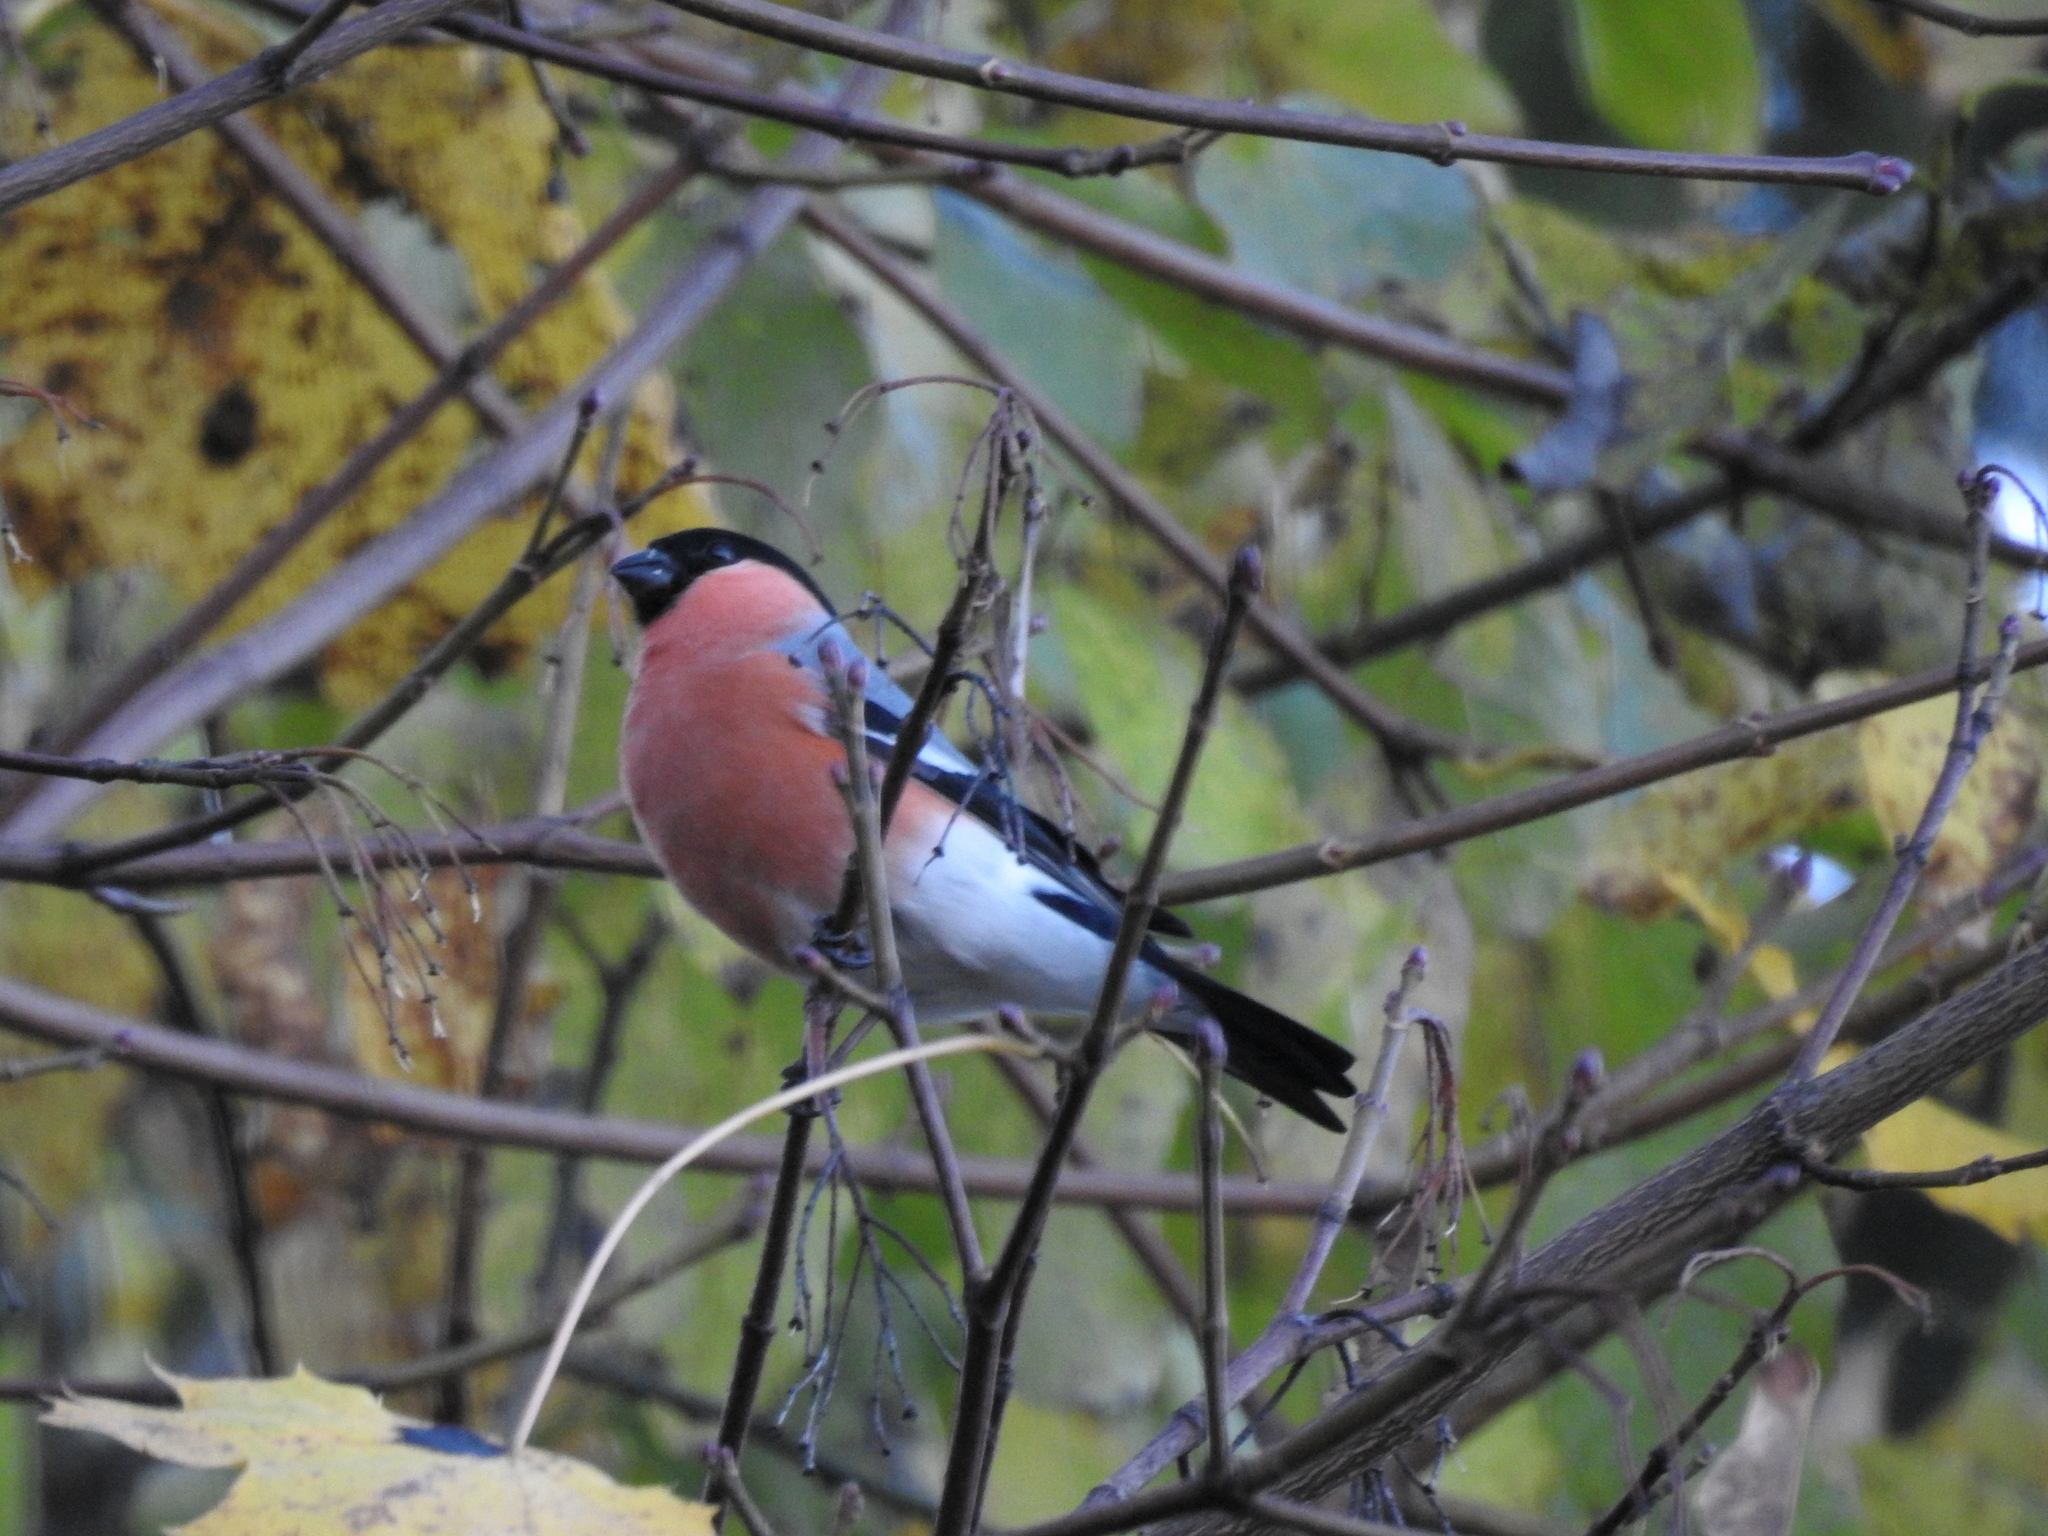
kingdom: Animalia
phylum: Chordata
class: Aves
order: Passeriformes
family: Fringillidae
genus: Pyrrhula
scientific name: Pyrrhula pyrrhula
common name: Eurasian bullfinch
